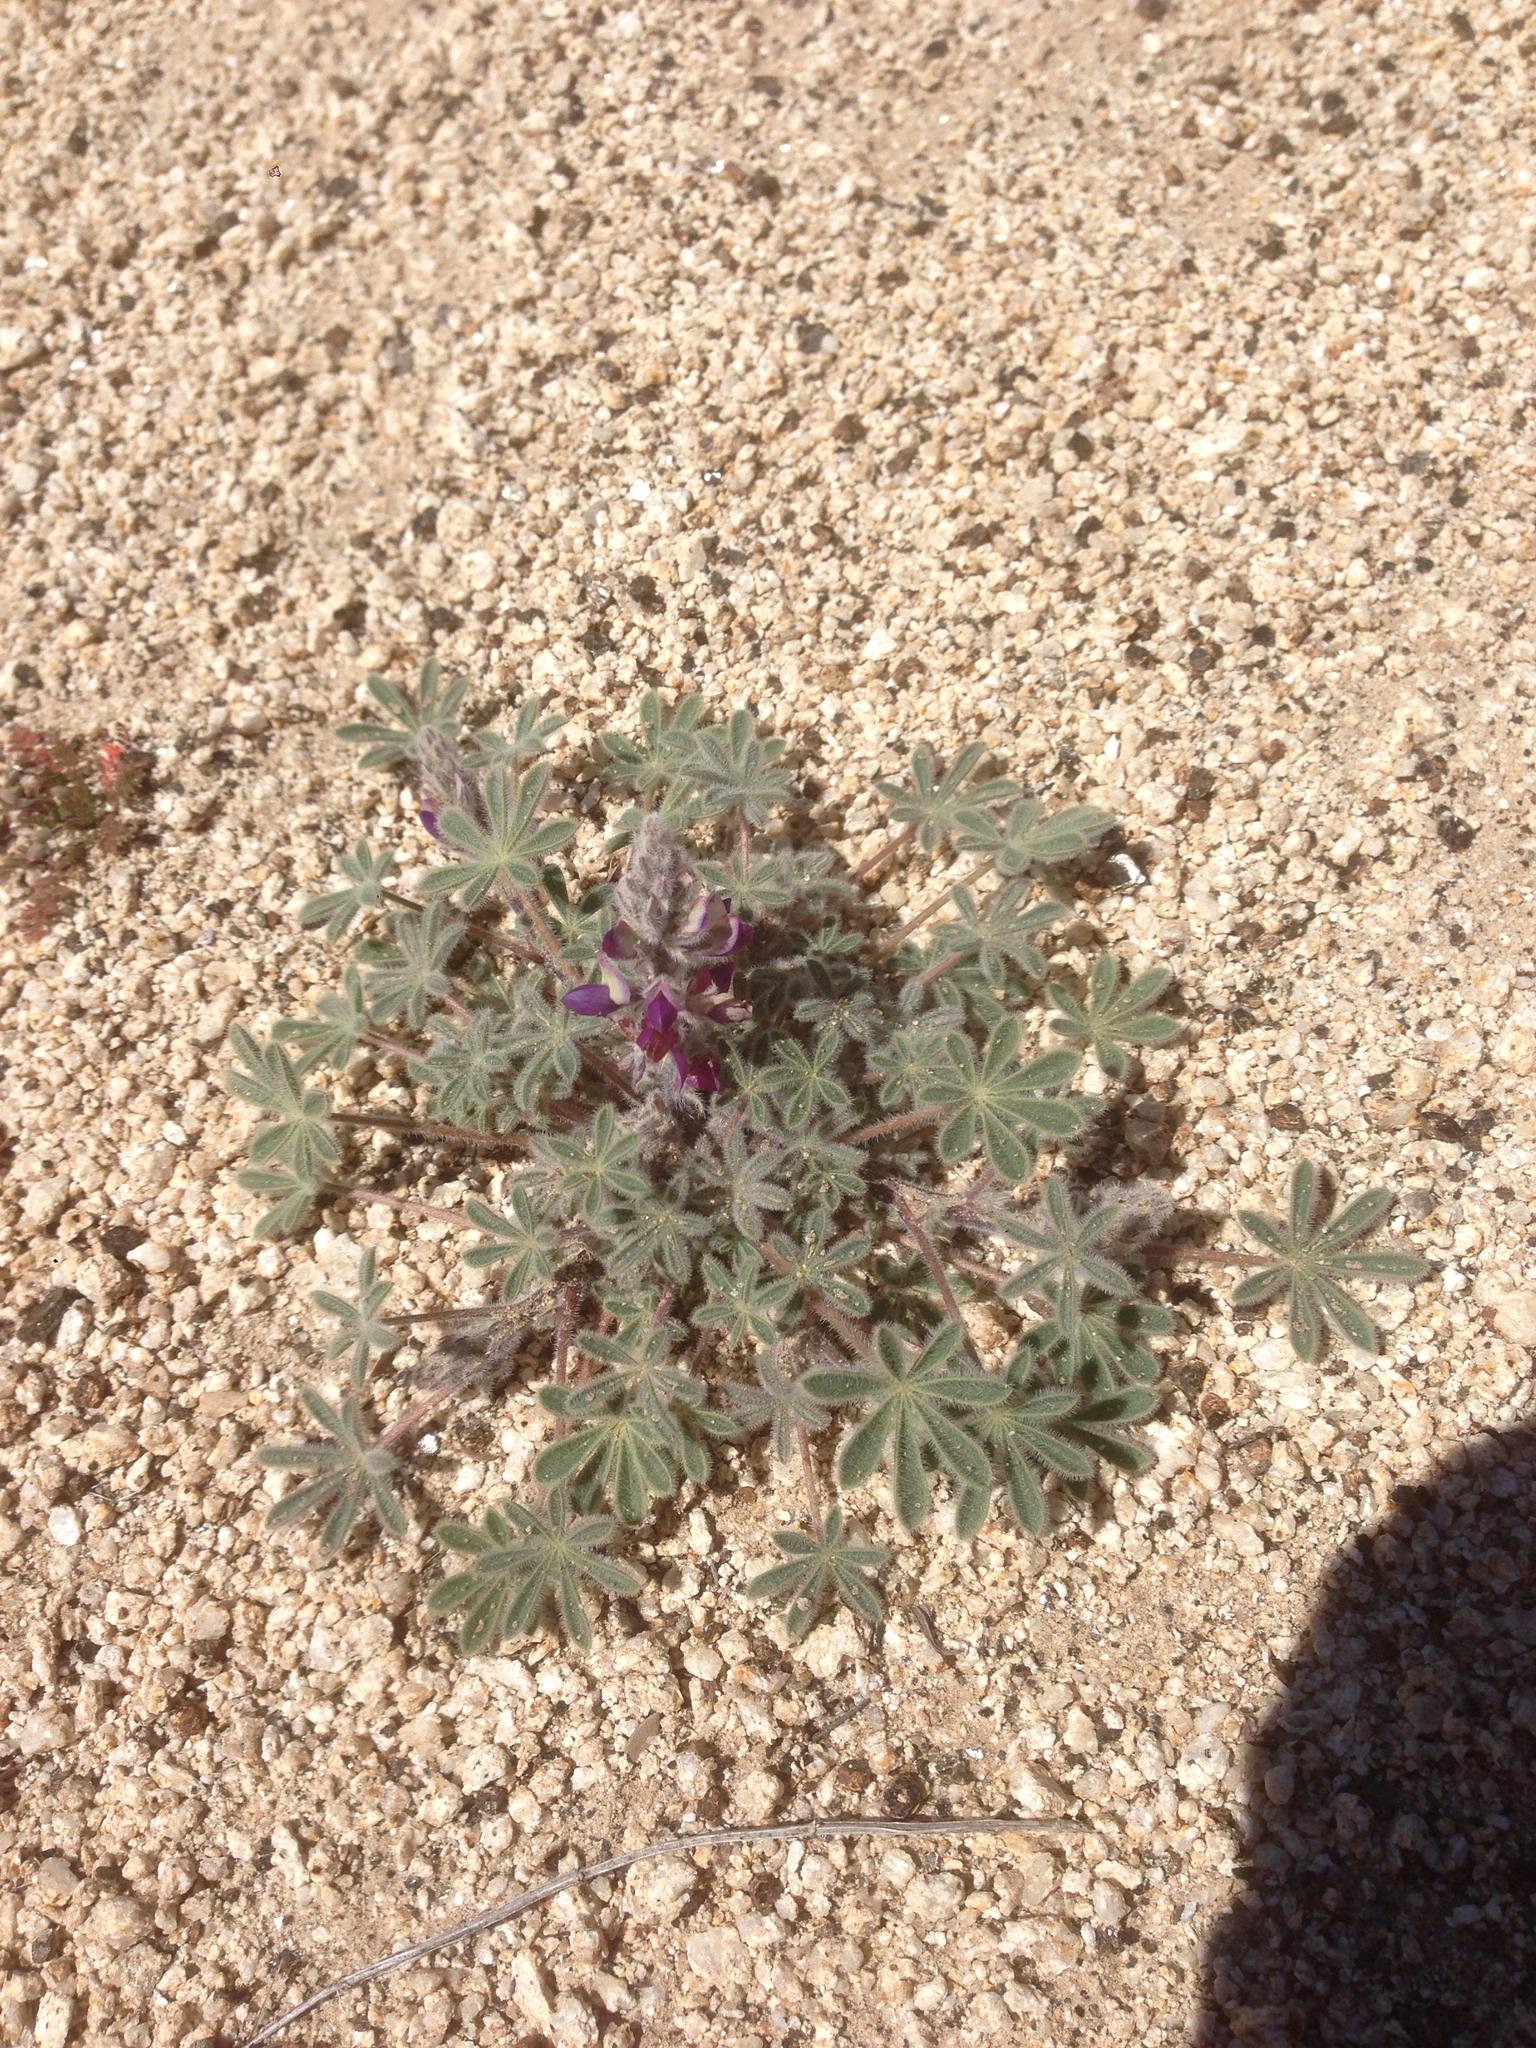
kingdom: Plantae
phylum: Tracheophyta
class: Magnoliopsida
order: Fabales
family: Fabaceae
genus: Lupinus
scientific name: Lupinus concinnus
